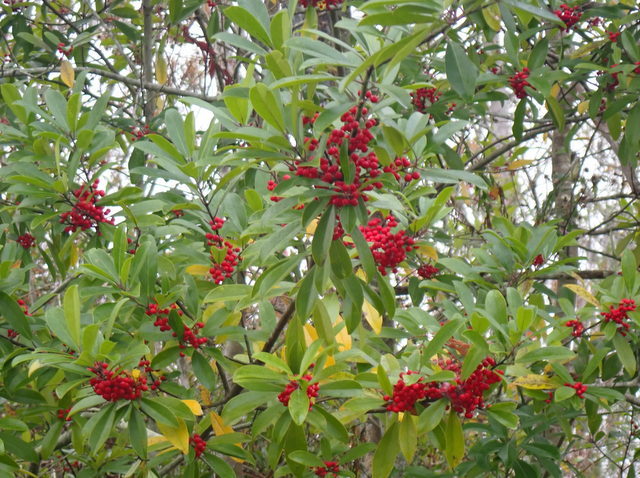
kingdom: Plantae
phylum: Tracheophyta
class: Magnoliopsida
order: Aquifoliales
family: Aquifoliaceae
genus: Ilex
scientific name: Ilex cassine
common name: Dahoon
